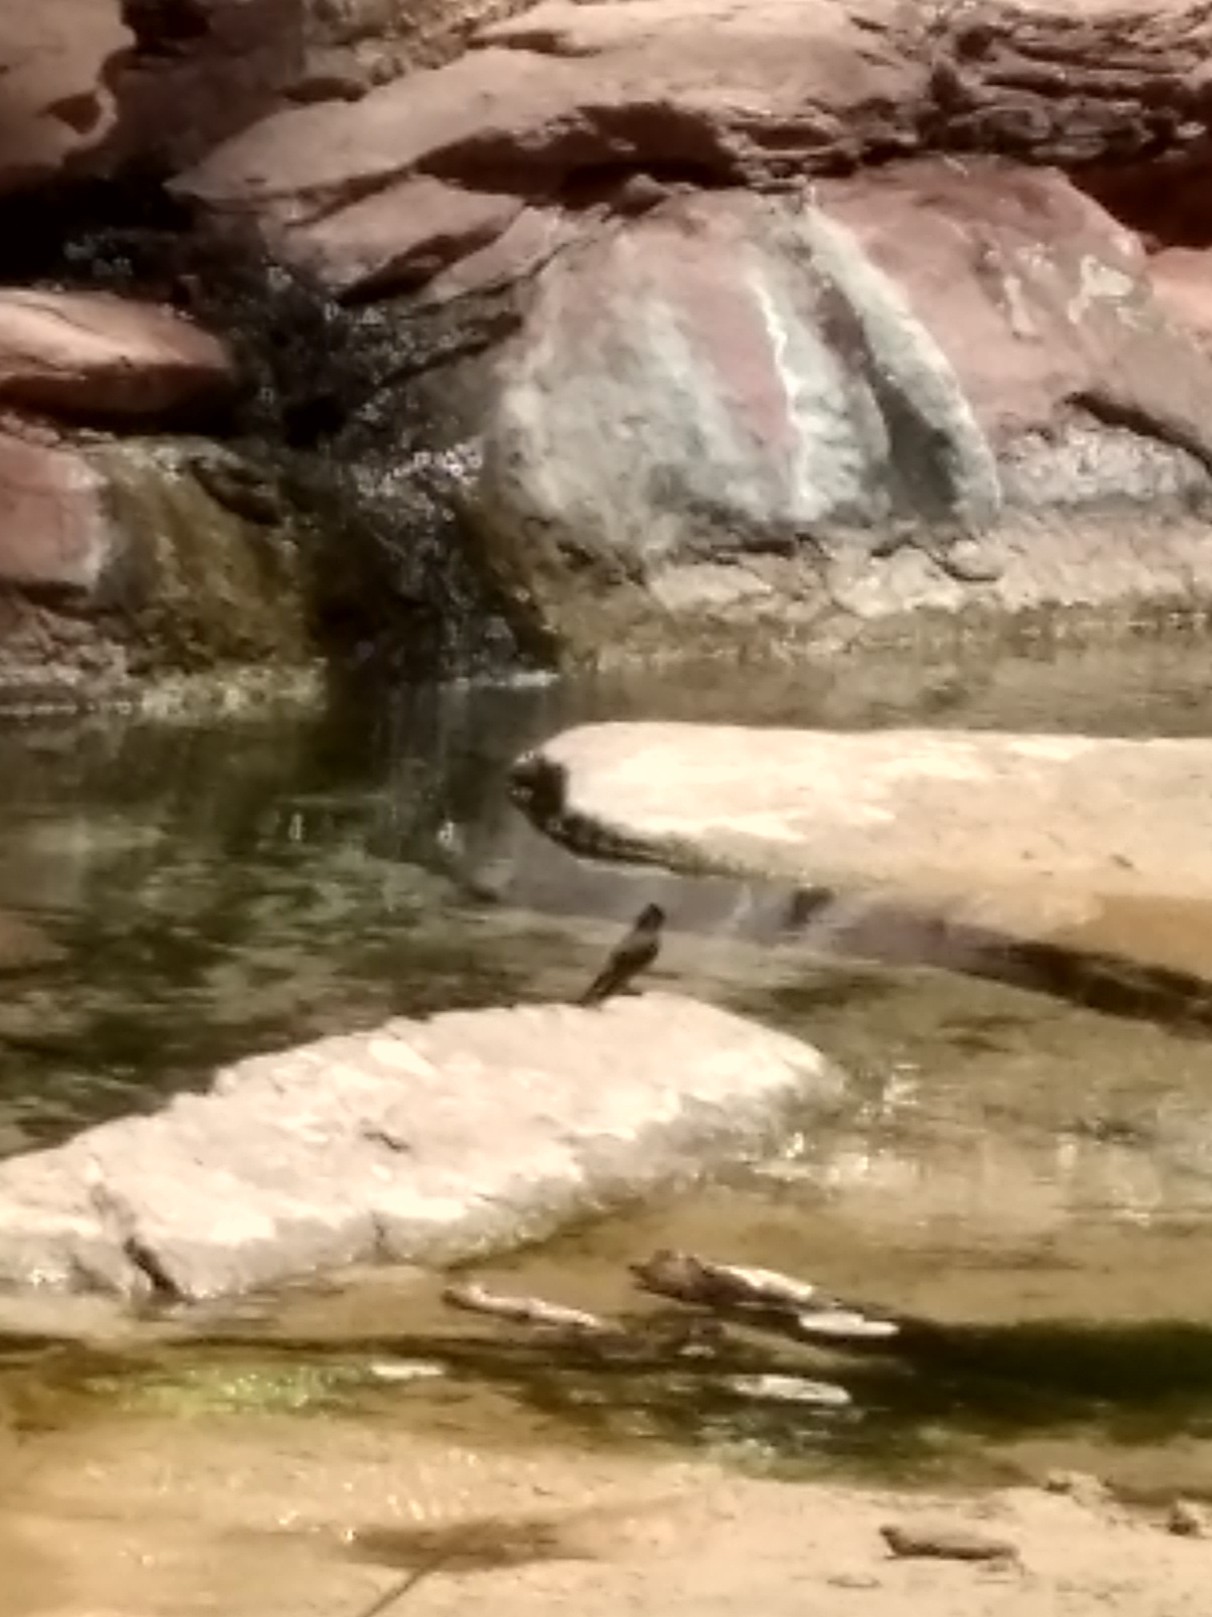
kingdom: Animalia
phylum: Chordata
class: Aves
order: Passeriformes
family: Tyrannidae
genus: Sayornis
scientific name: Sayornis nigricans
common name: Black phoebe
